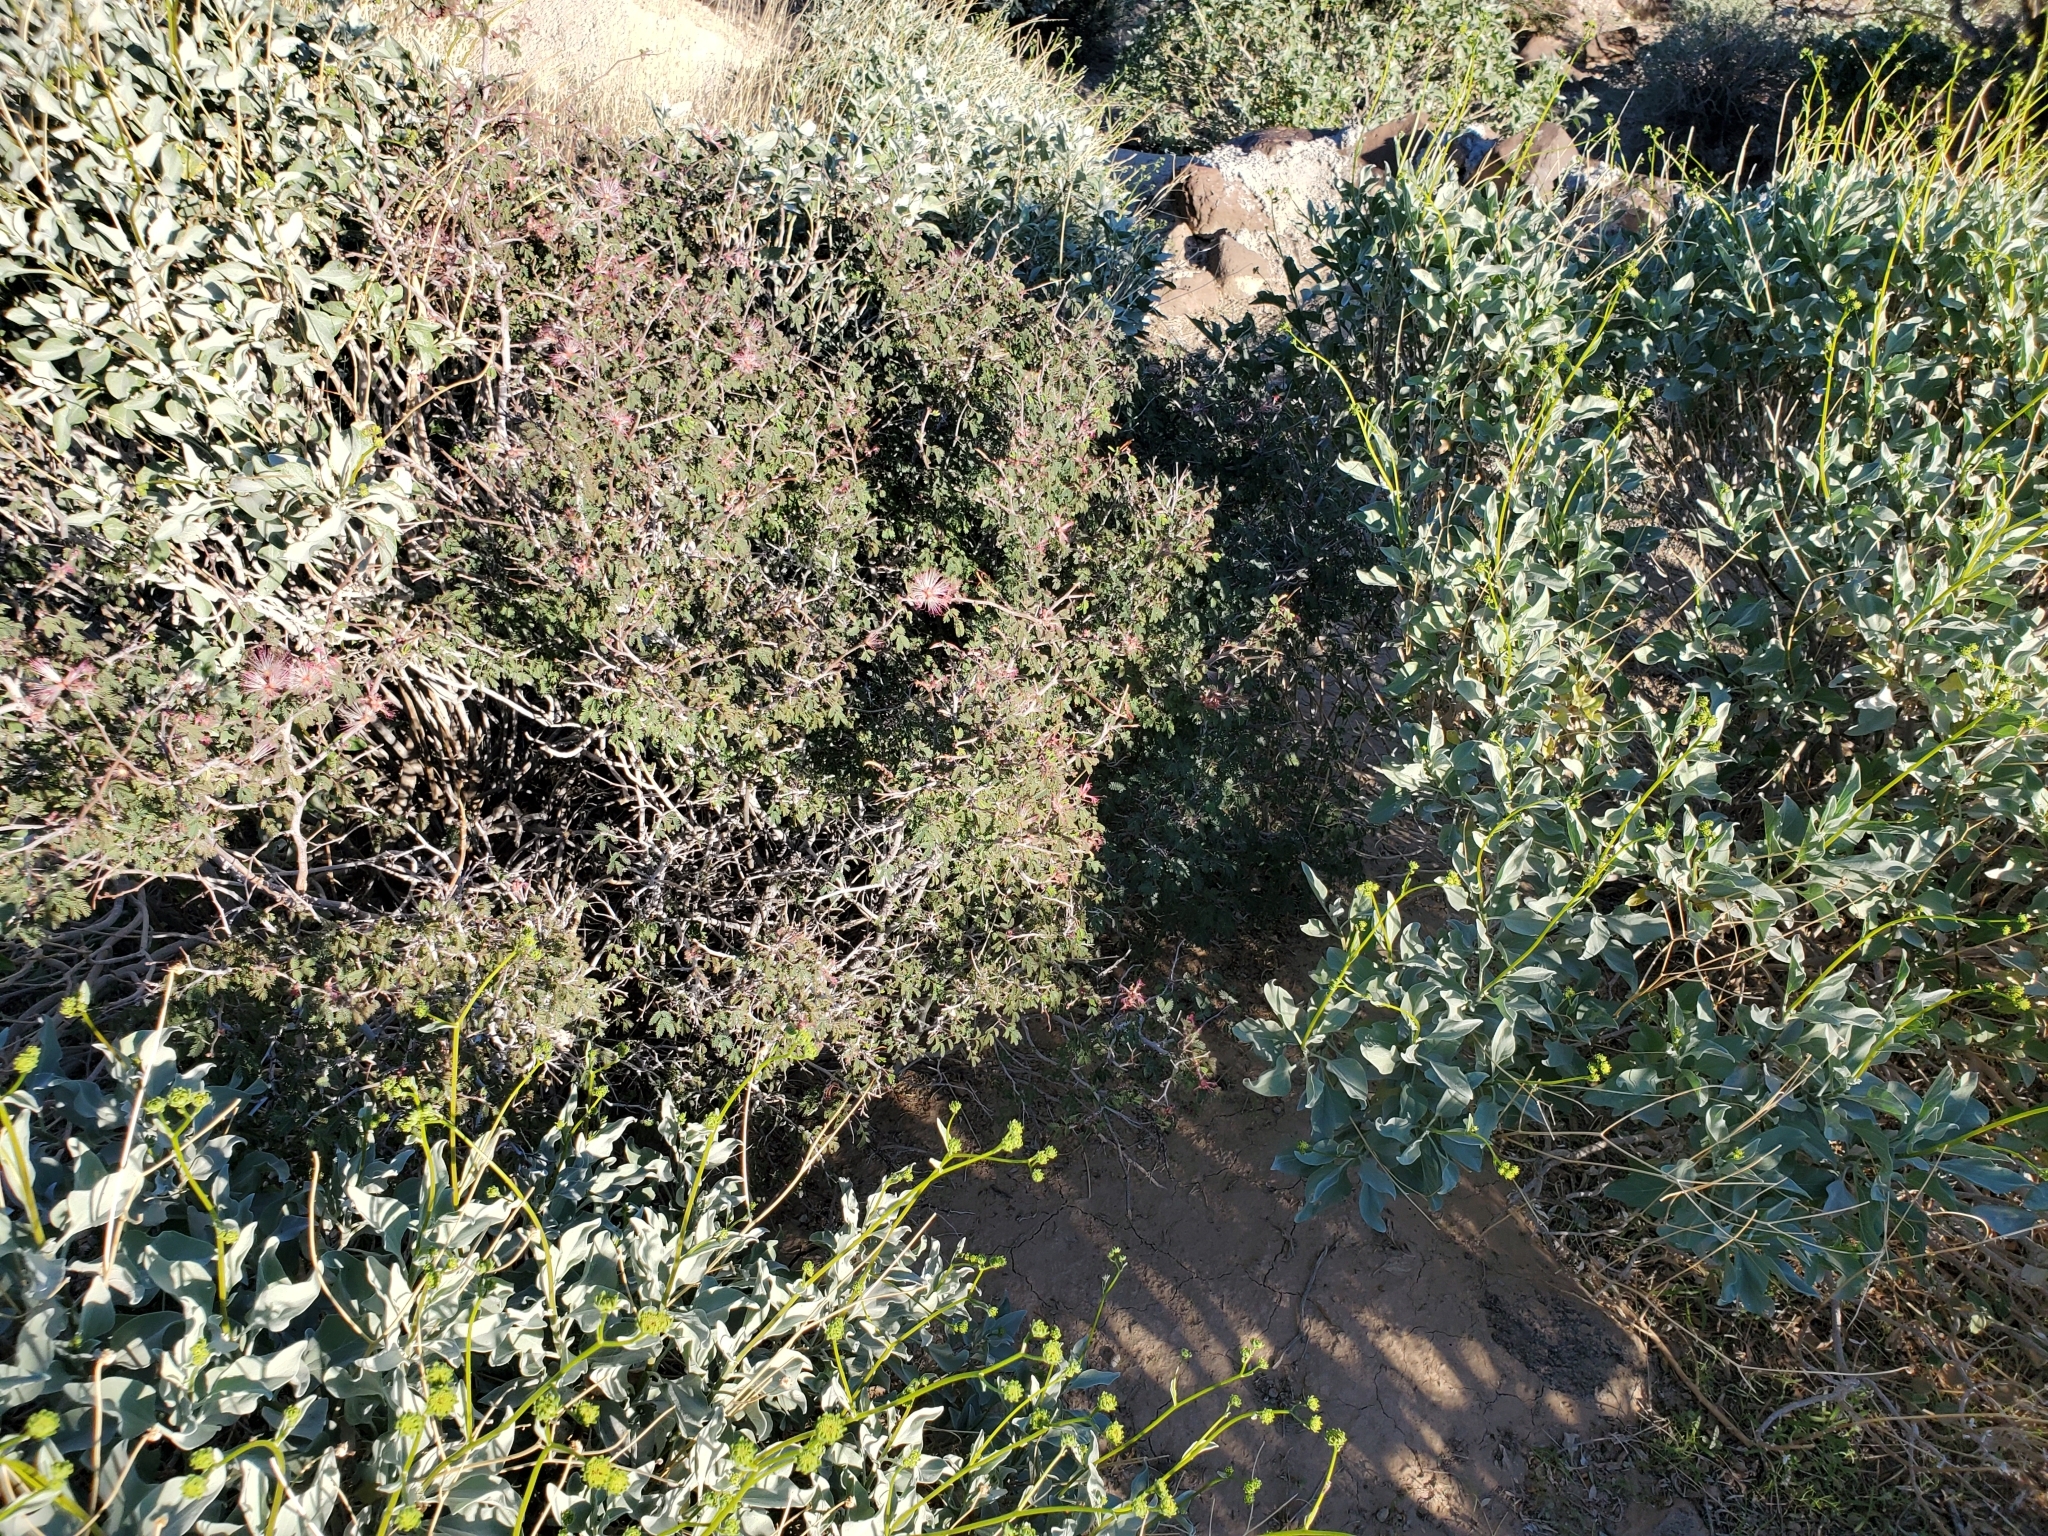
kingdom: Plantae
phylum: Tracheophyta
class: Magnoliopsida
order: Fabales
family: Fabaceae
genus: Calliandra
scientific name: Calliandra eriophylla
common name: Fairy-duster
